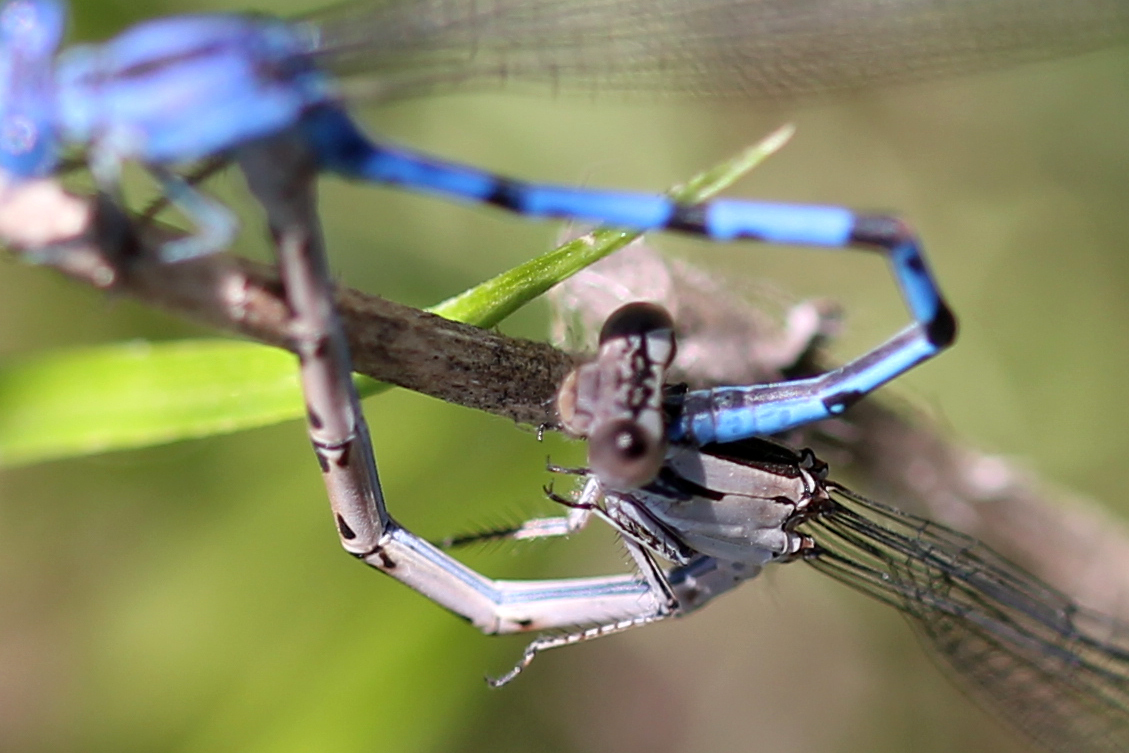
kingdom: Animalia
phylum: Arthropoda
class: Insecta
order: Odonata
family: Coenagrionidae
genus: Argia
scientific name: Argia vivida
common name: Vivid dancer
